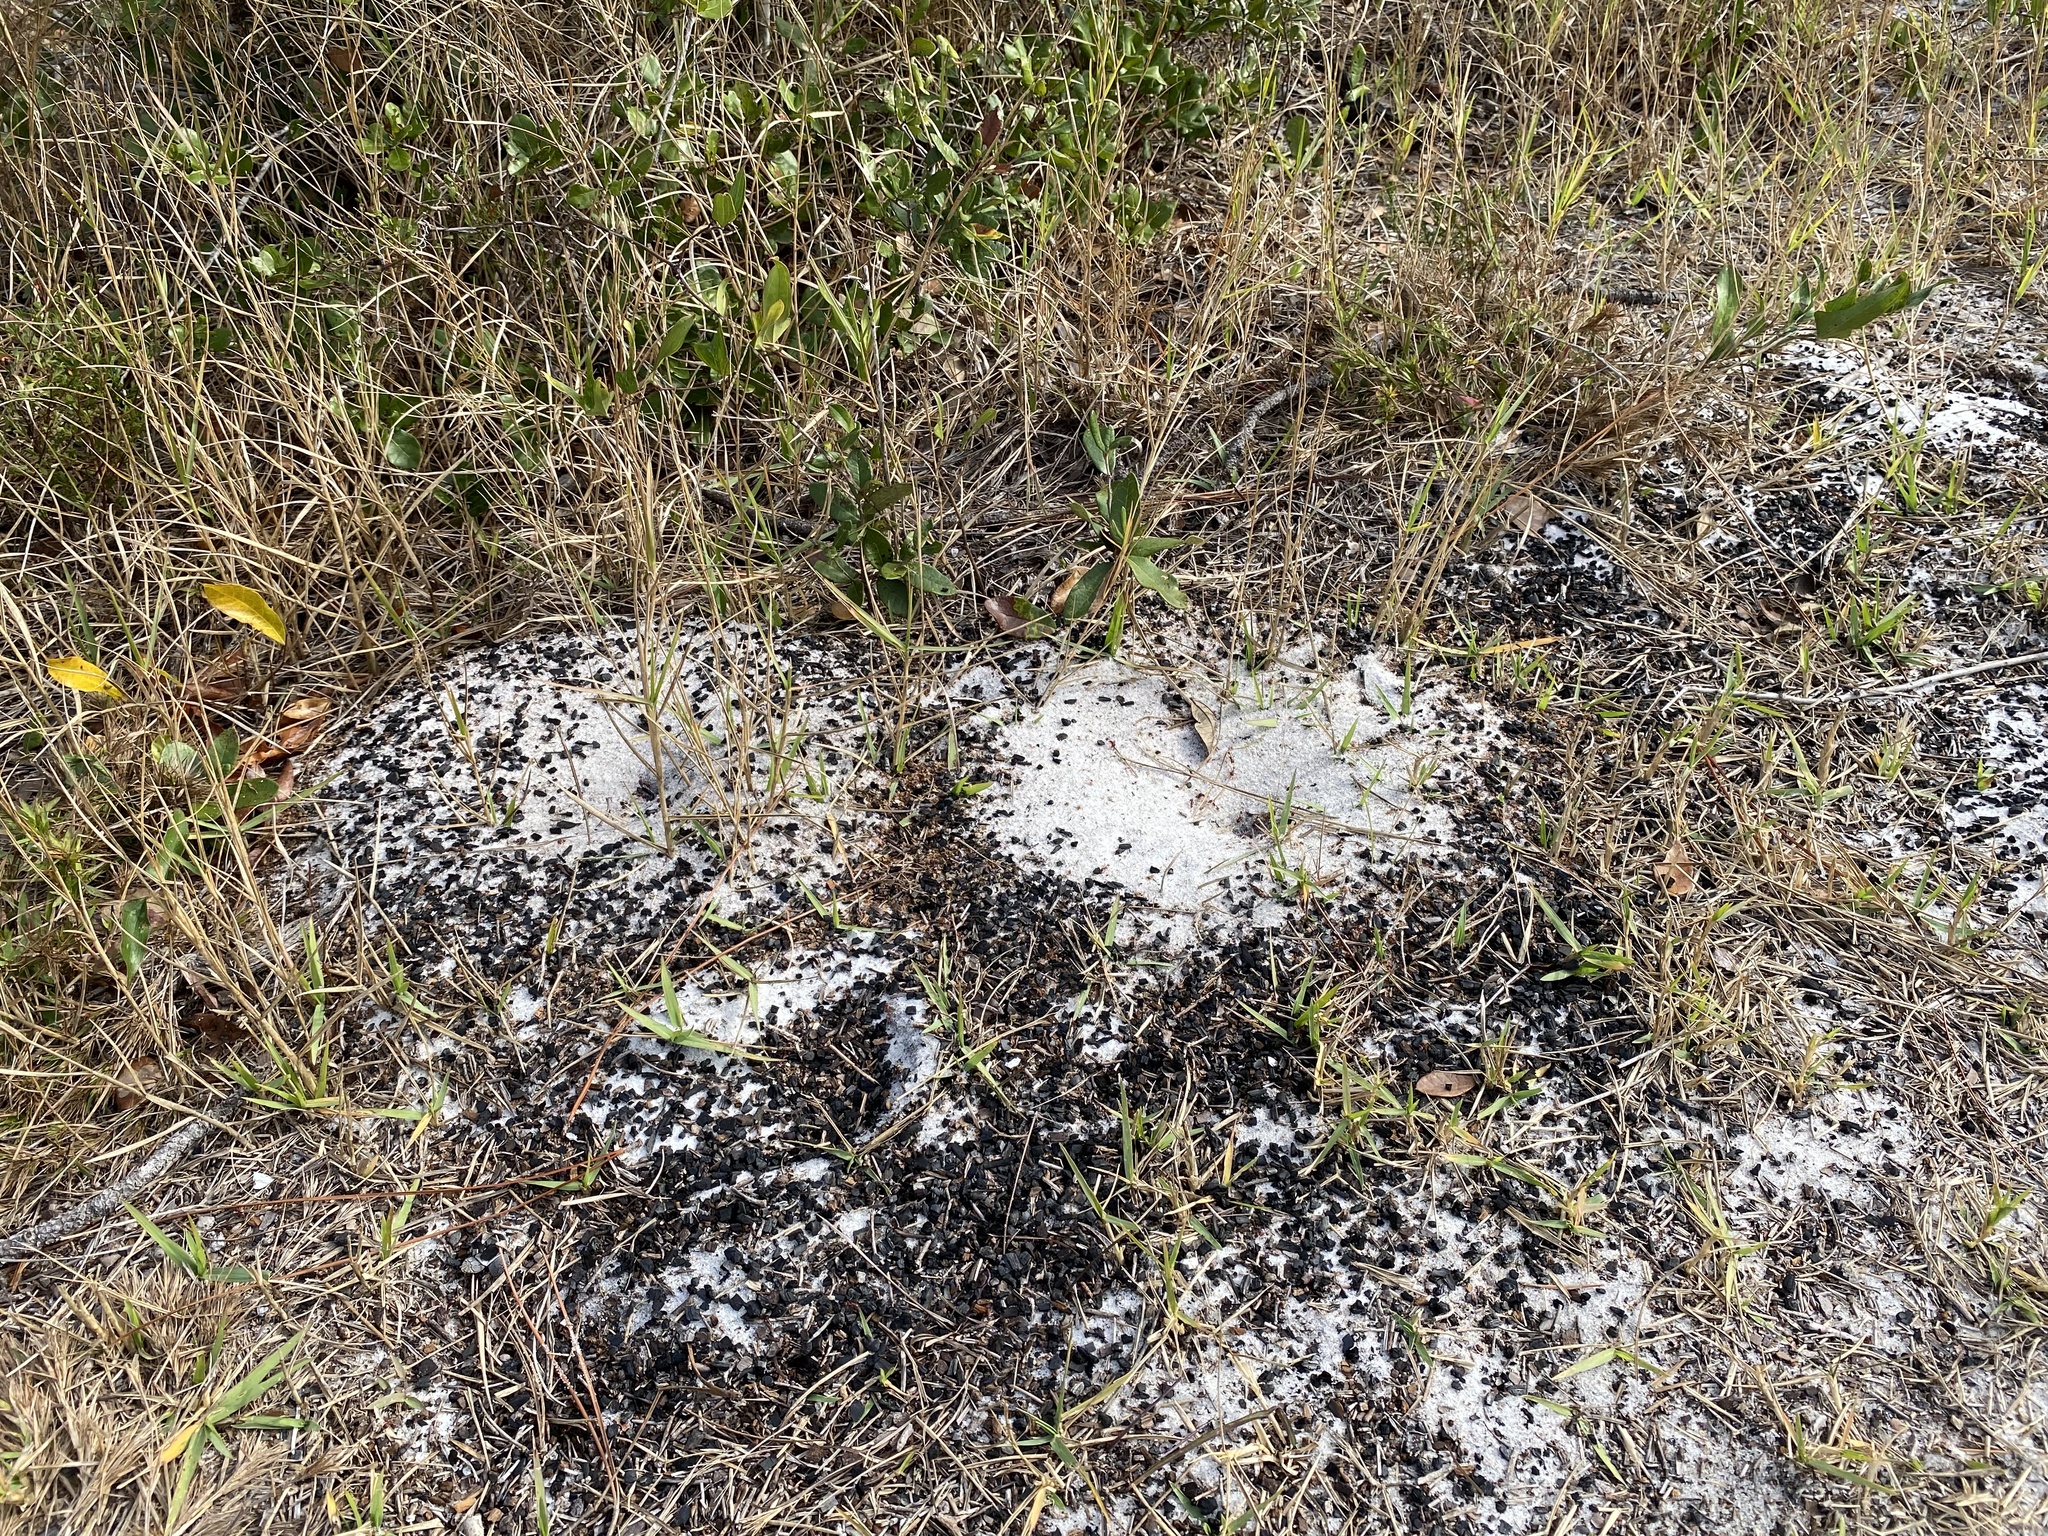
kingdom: Animalia
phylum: Arthropoda
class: Insecta
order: Hymenoptera
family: Formicidae
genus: Pogonomyrmex
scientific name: Pogonomyrmex badius
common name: Florida harvester ant
